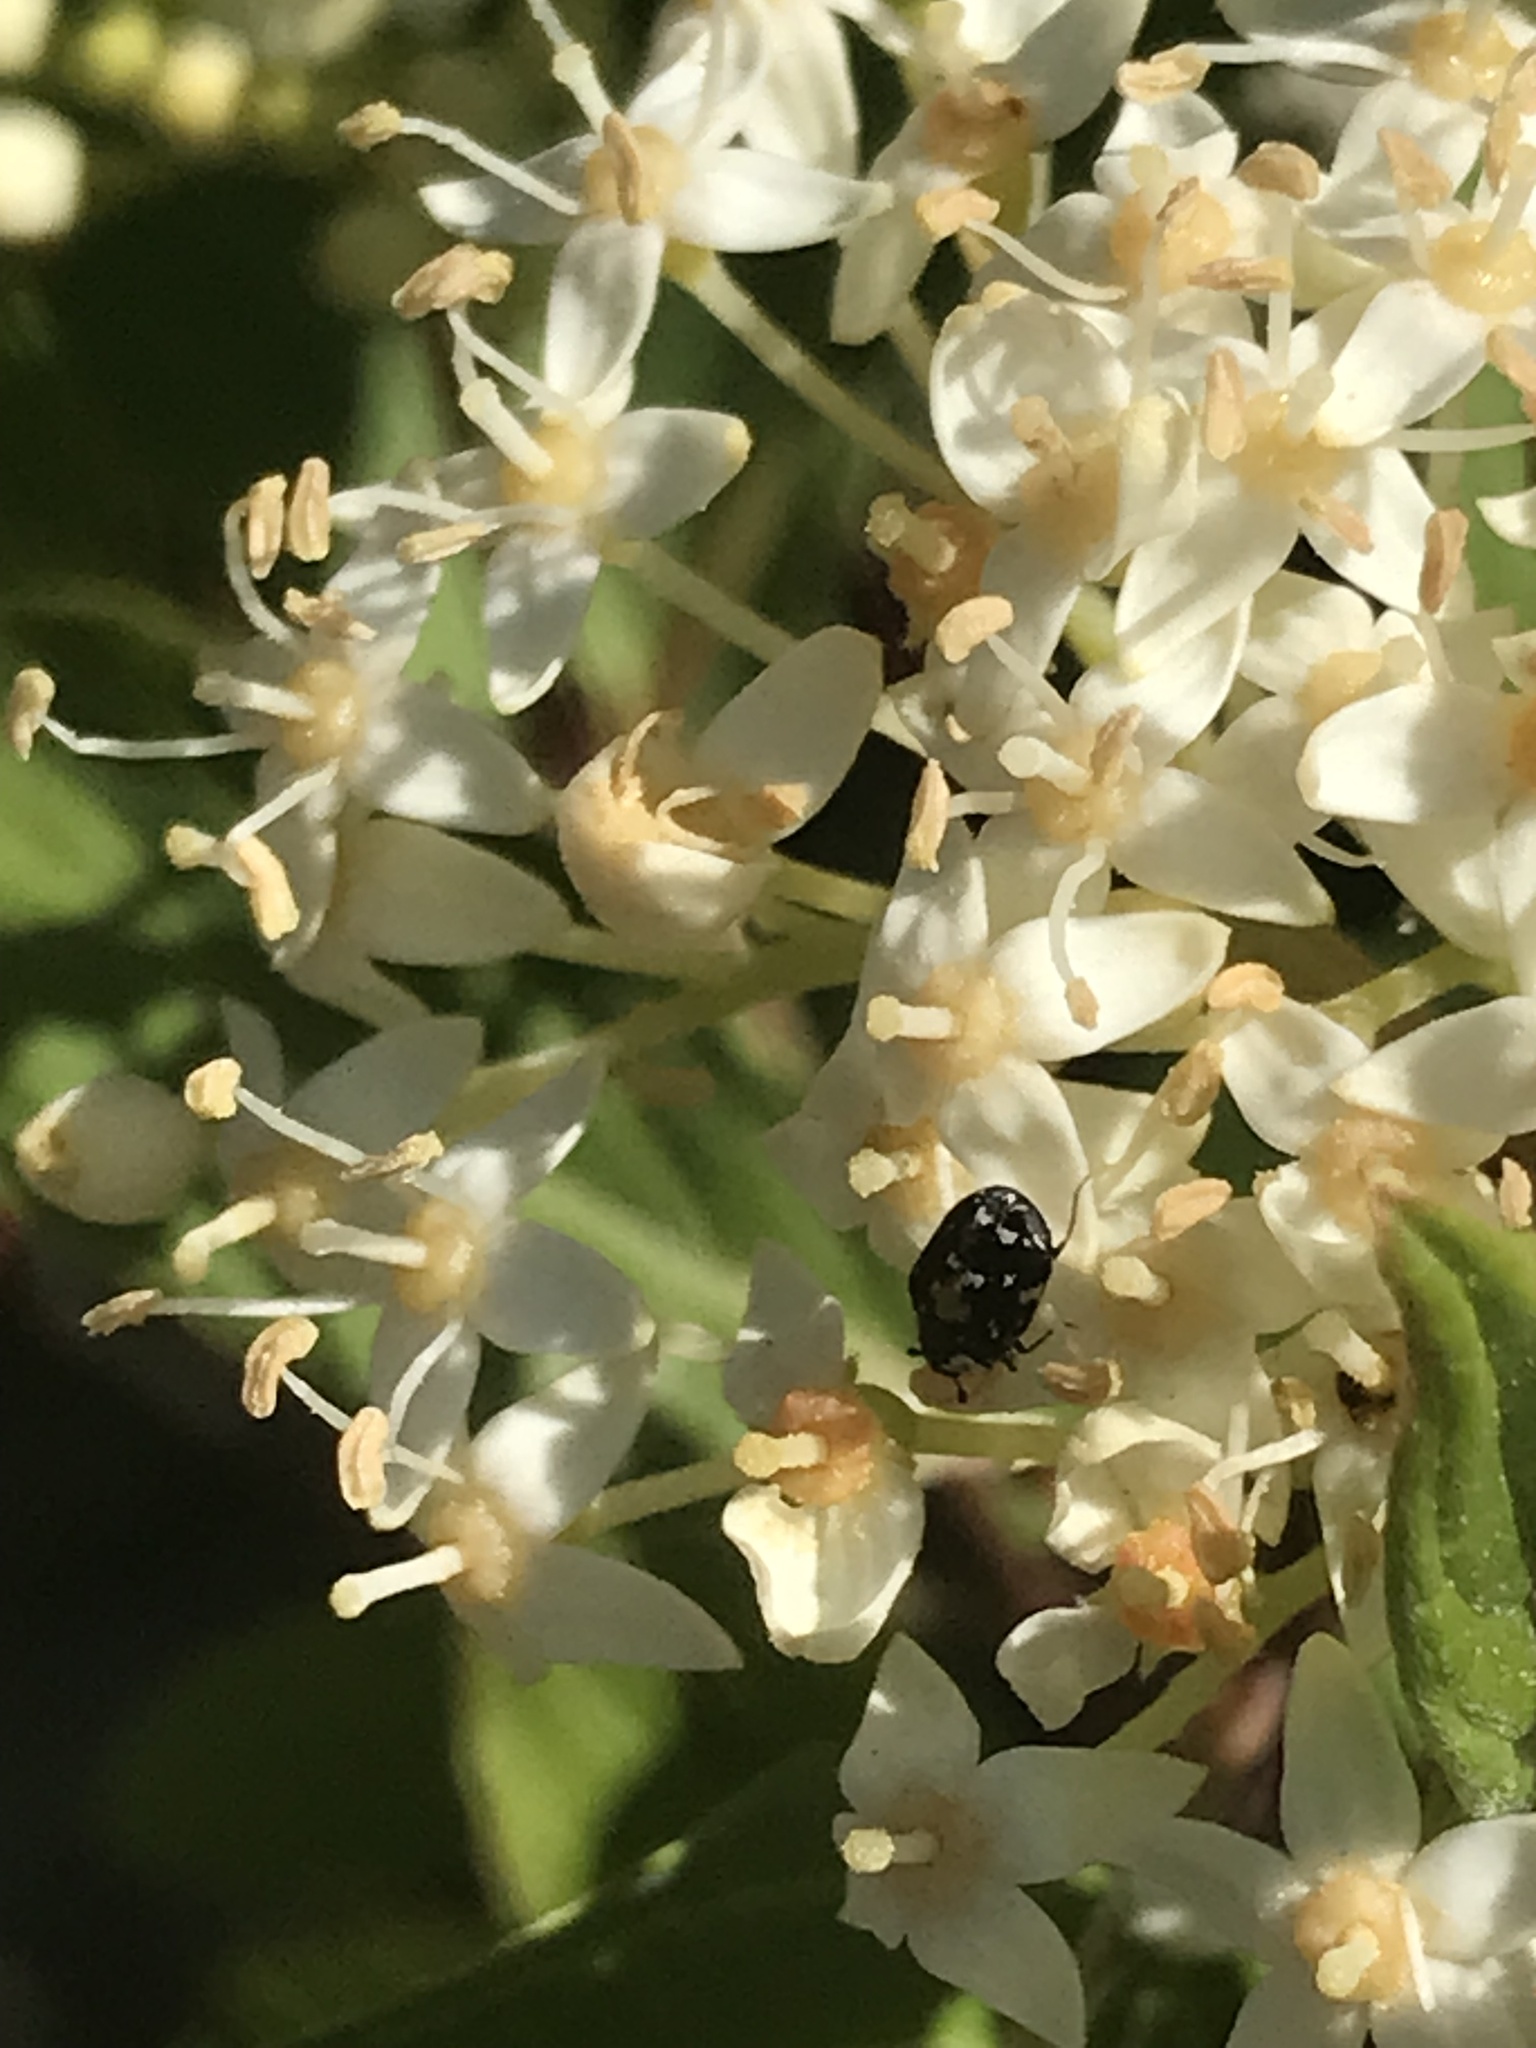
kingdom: Animalia
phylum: Arthropoda
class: Insecta
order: Coleoptera
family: Dermestidae
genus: Anthrenus
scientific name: Anthrenus lepidus
